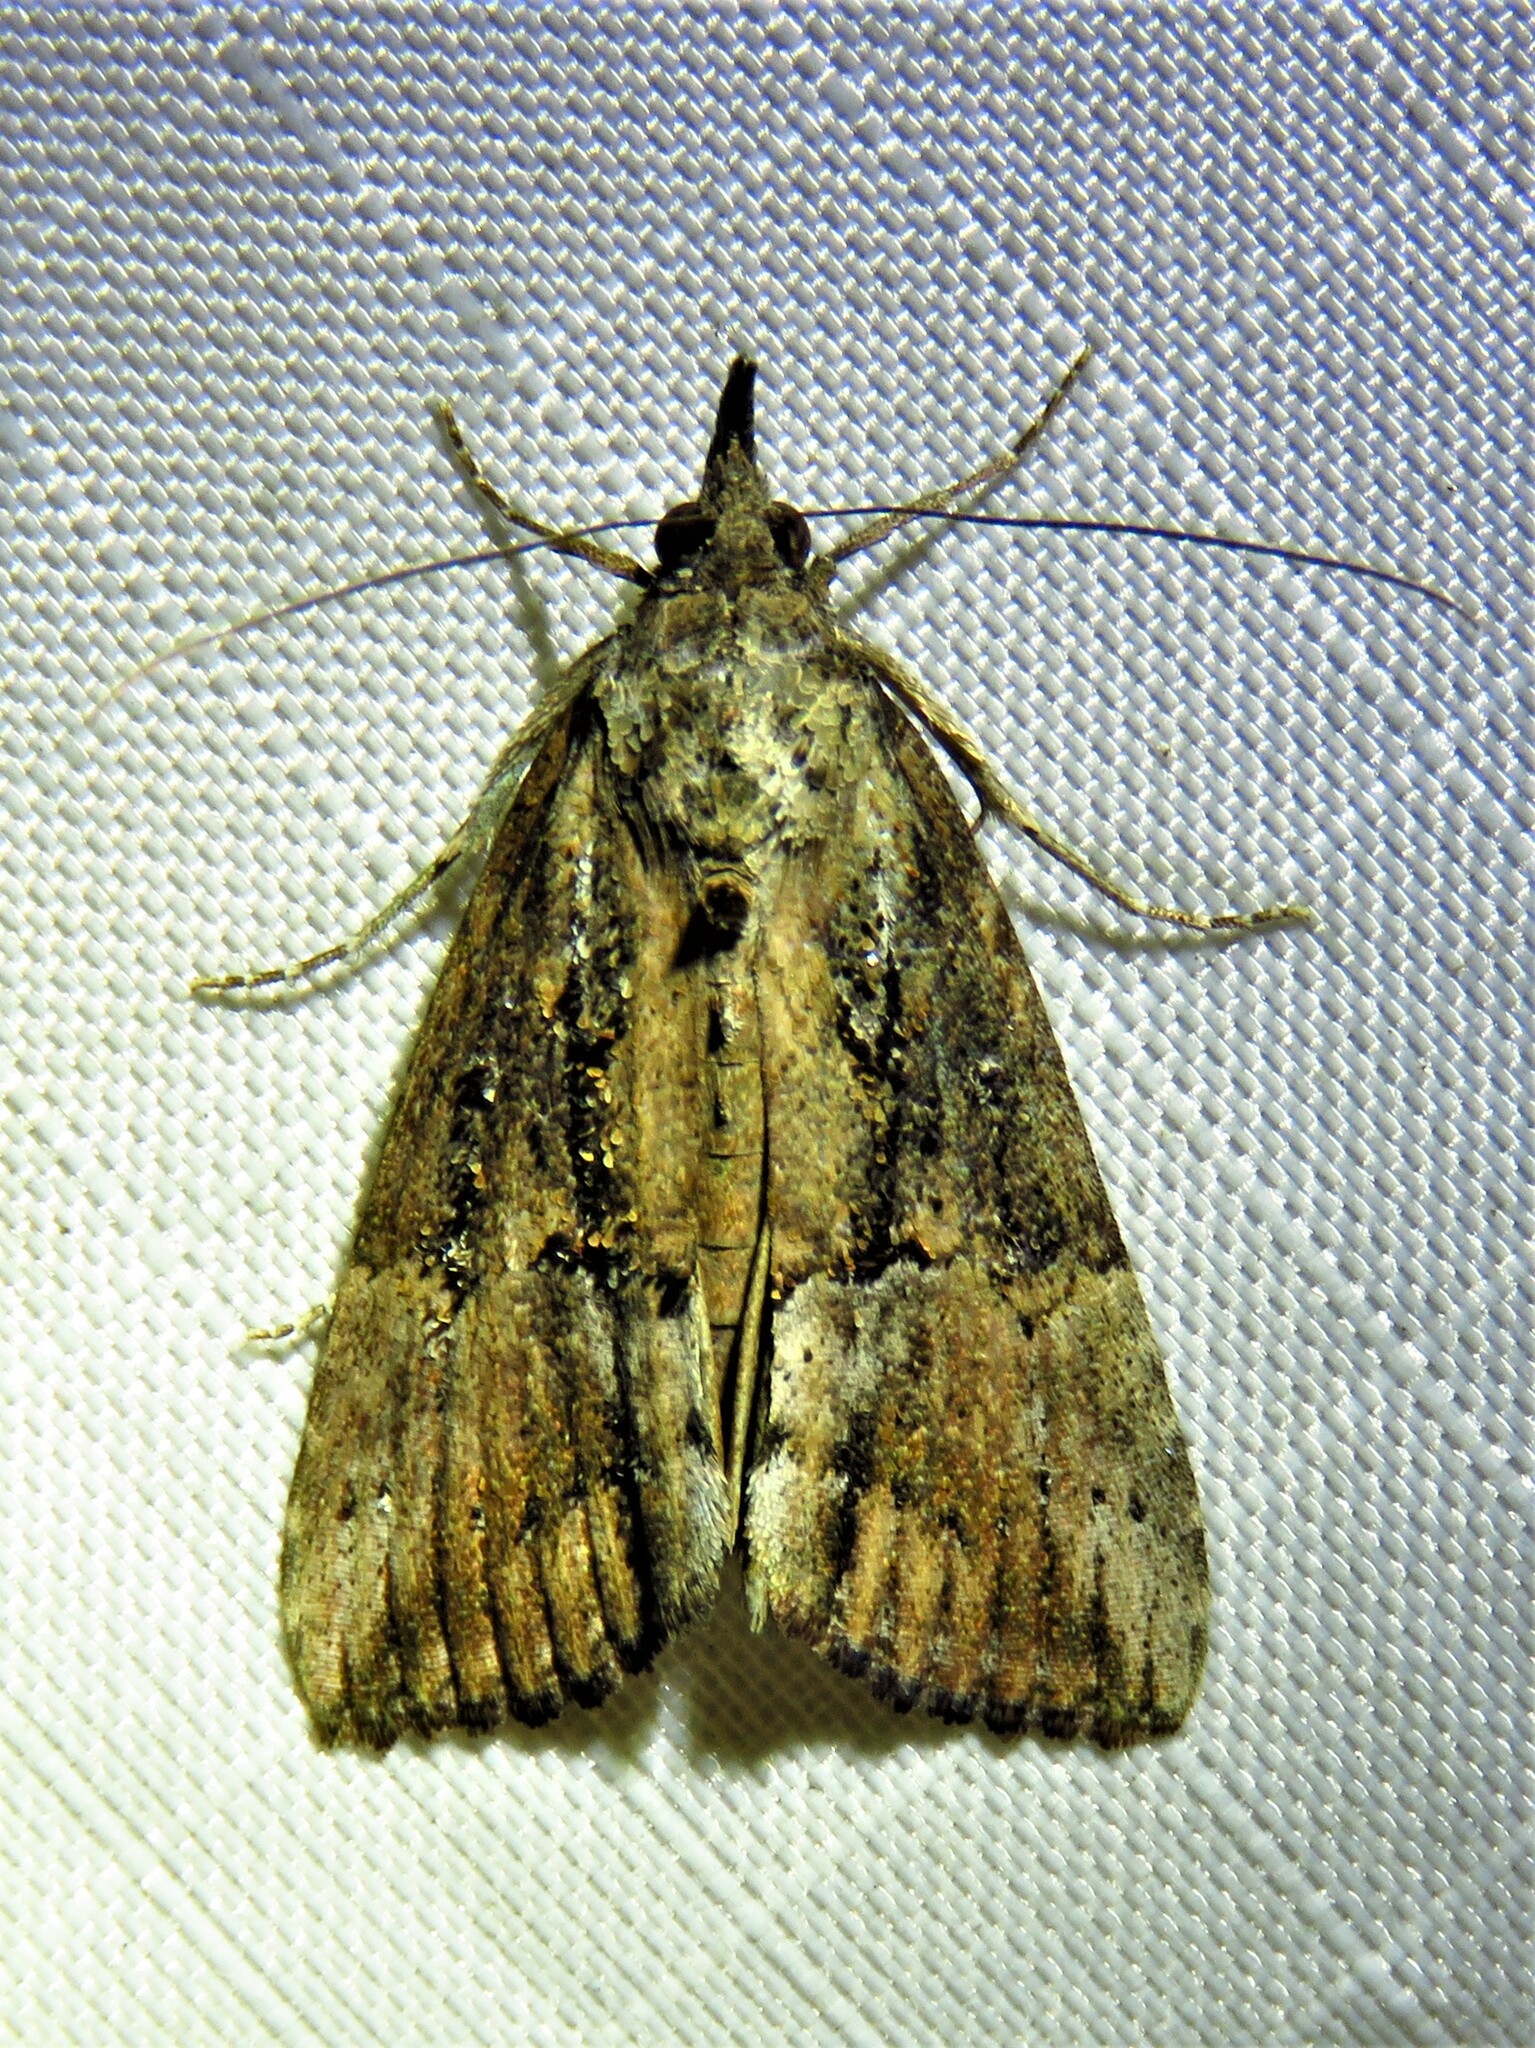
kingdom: Animalia
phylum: Arthropoda
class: Insecta
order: Lepidoptera
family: Erebidae
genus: Hypena
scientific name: Hypena scabra
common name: Green cloverworm
